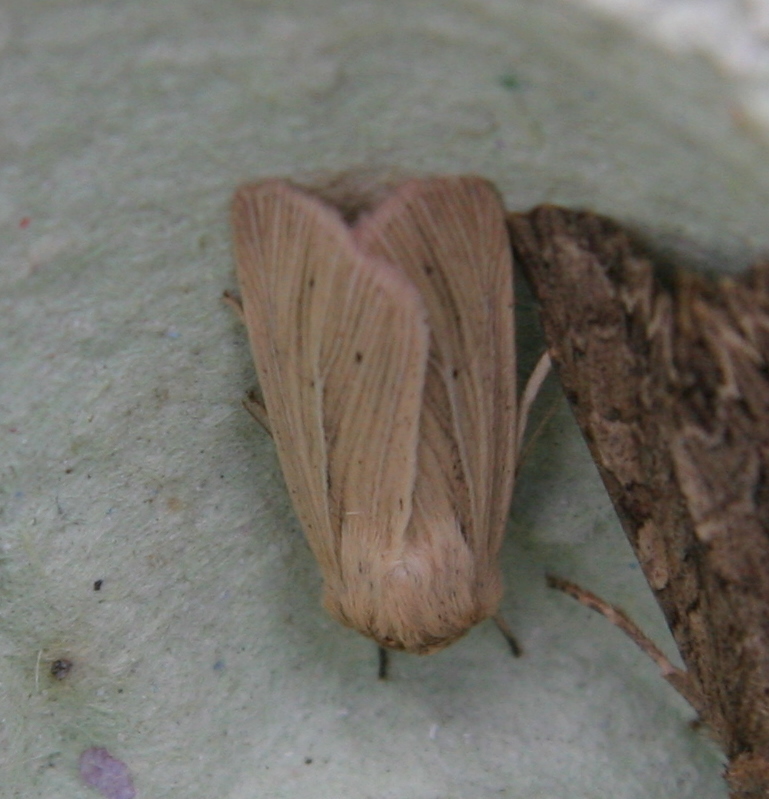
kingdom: Animalia
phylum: Arthropoda
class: Insecta
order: Lepidoptera
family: Noctuidae
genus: Mythimna
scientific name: Mythimna impura
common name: Smoky wainscot
